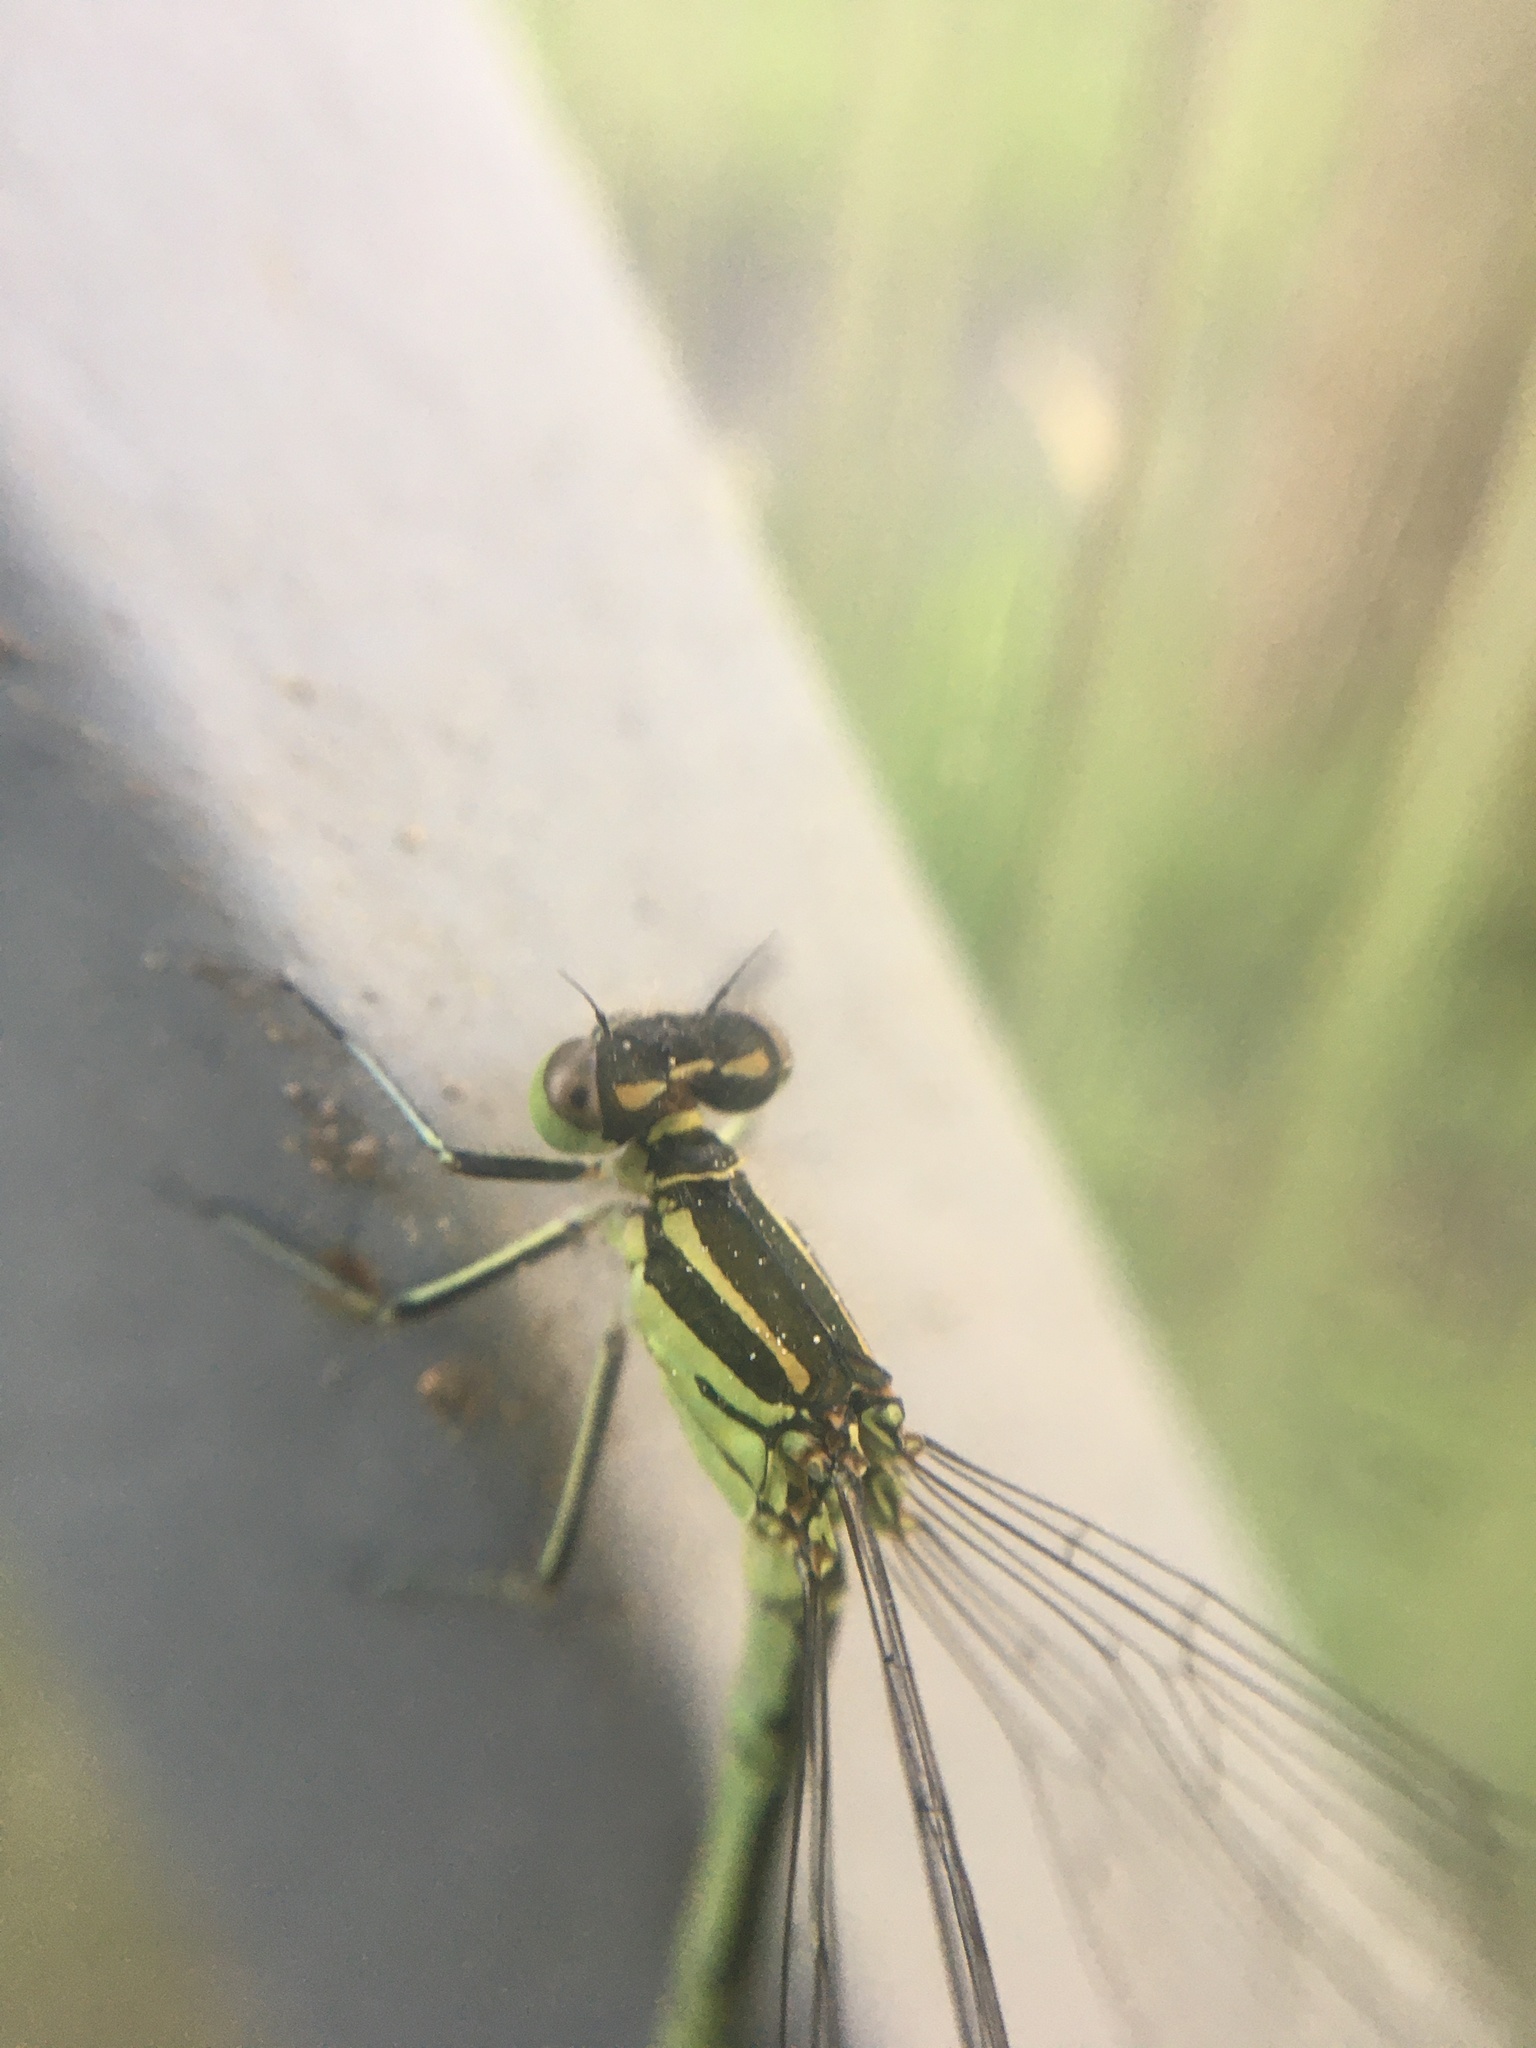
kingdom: Animalia
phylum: Arthropoda
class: Insecta
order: Odonata
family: Coenagrionidae
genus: Coenagrion
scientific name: Coenagrion hastulatum
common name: Spearhead bluet
